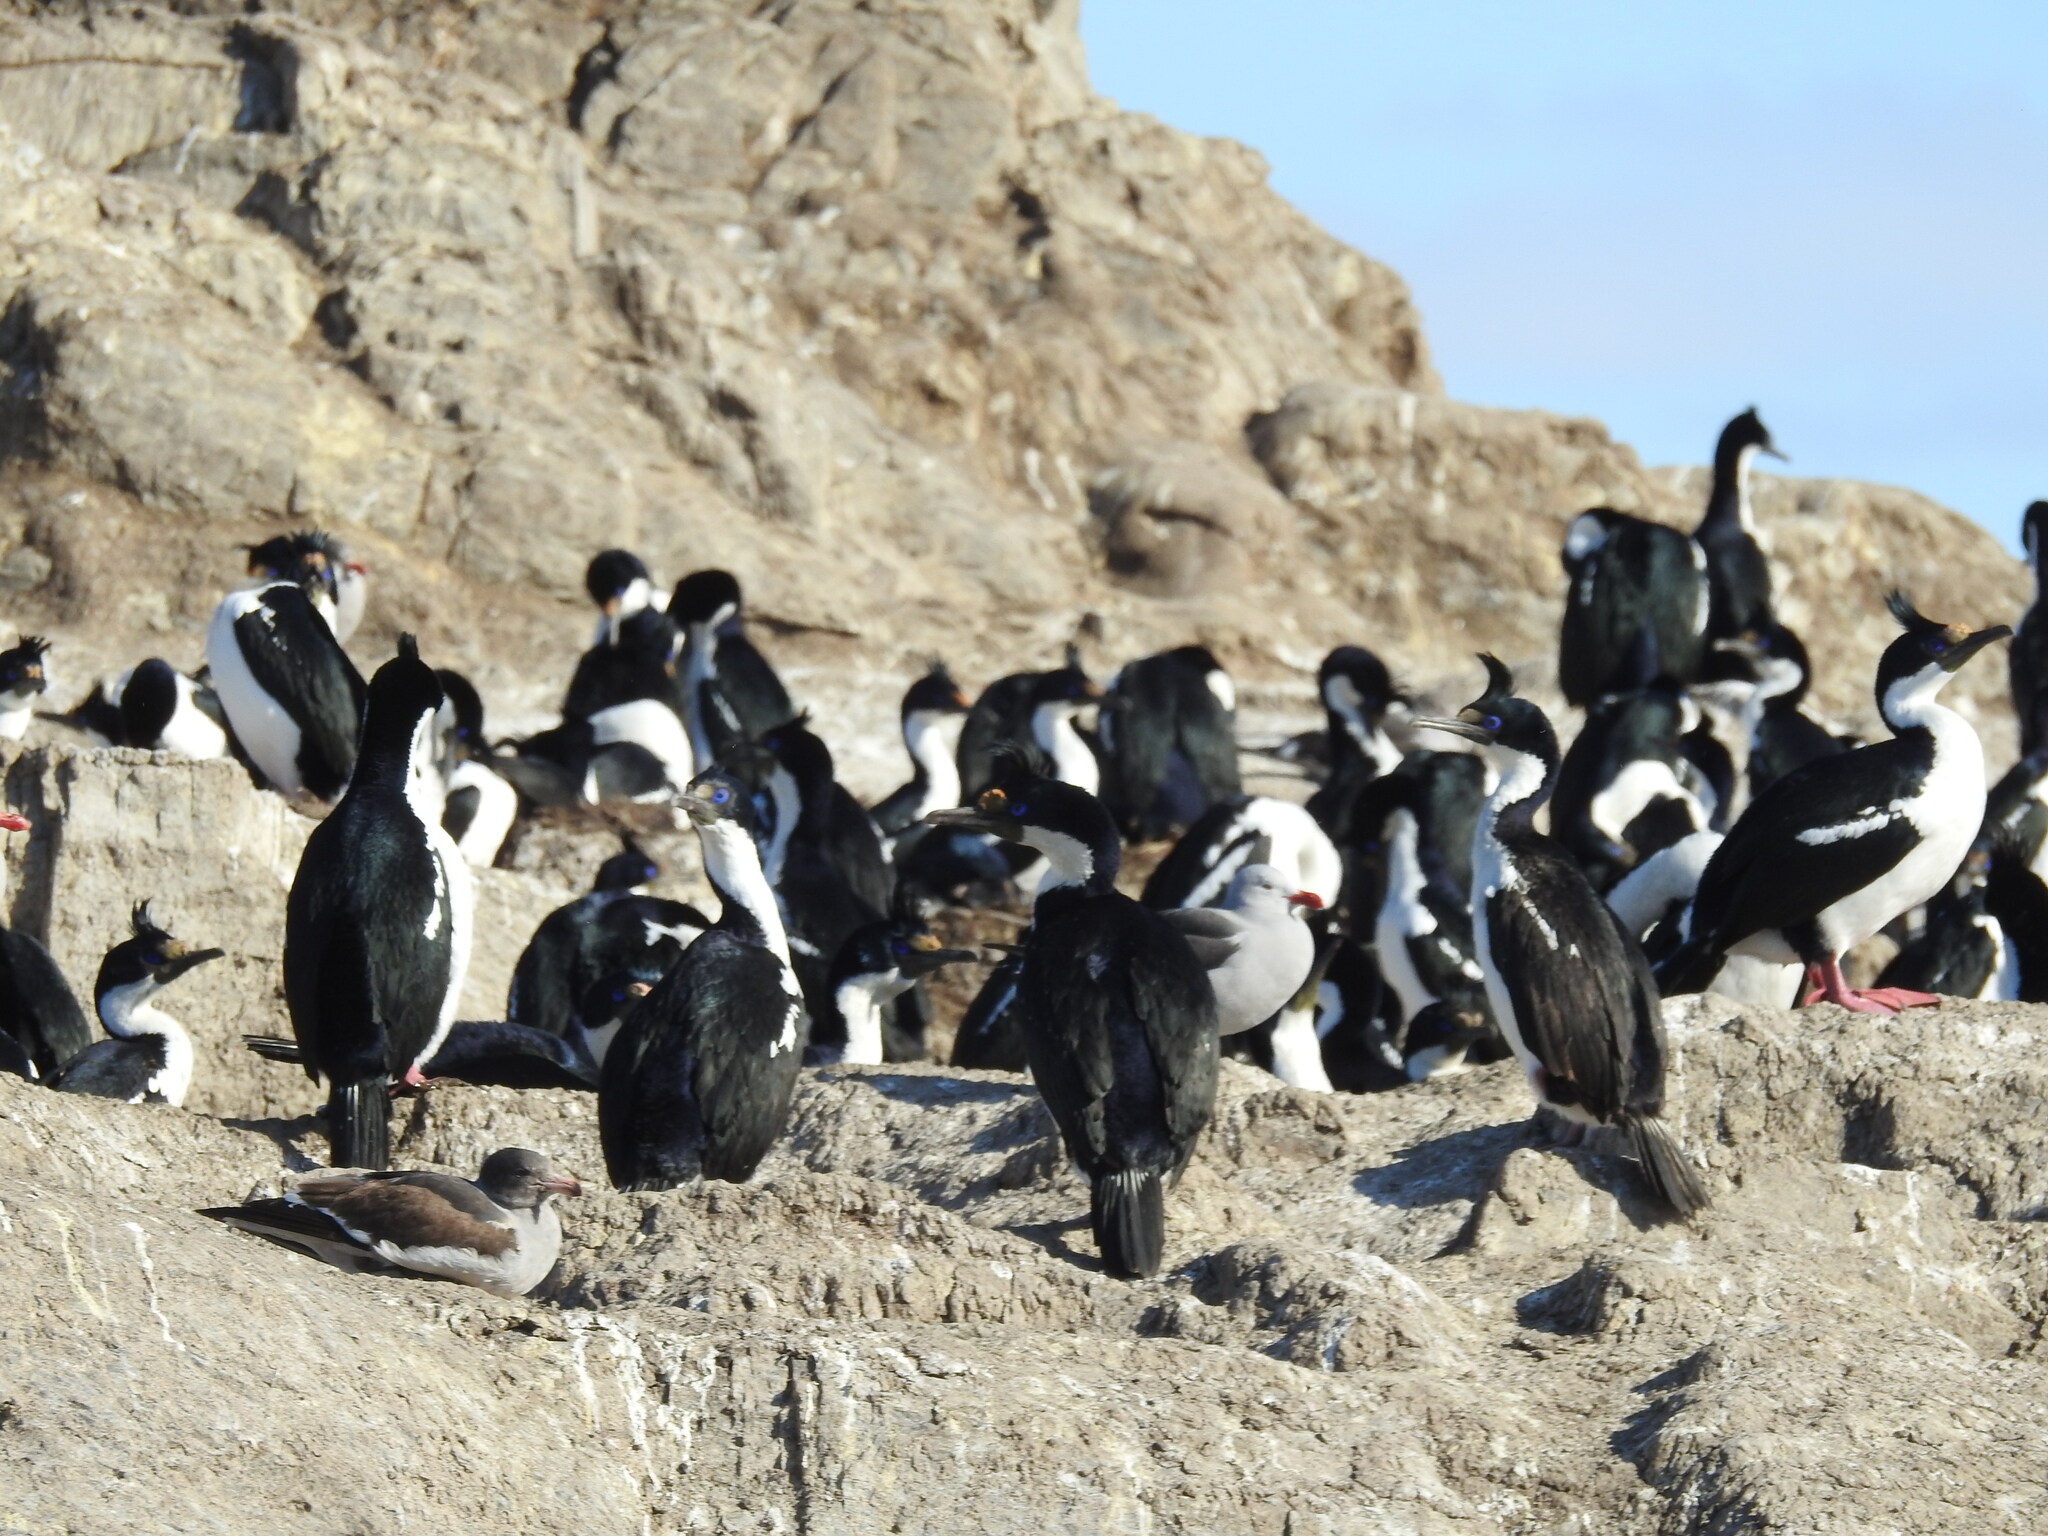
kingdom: Animalia
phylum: Chordata
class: Aves
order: Suliformes
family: Phalacrocoracidae
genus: Leucocarbo
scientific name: Leucocarbo atriceps
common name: Imperial shag
